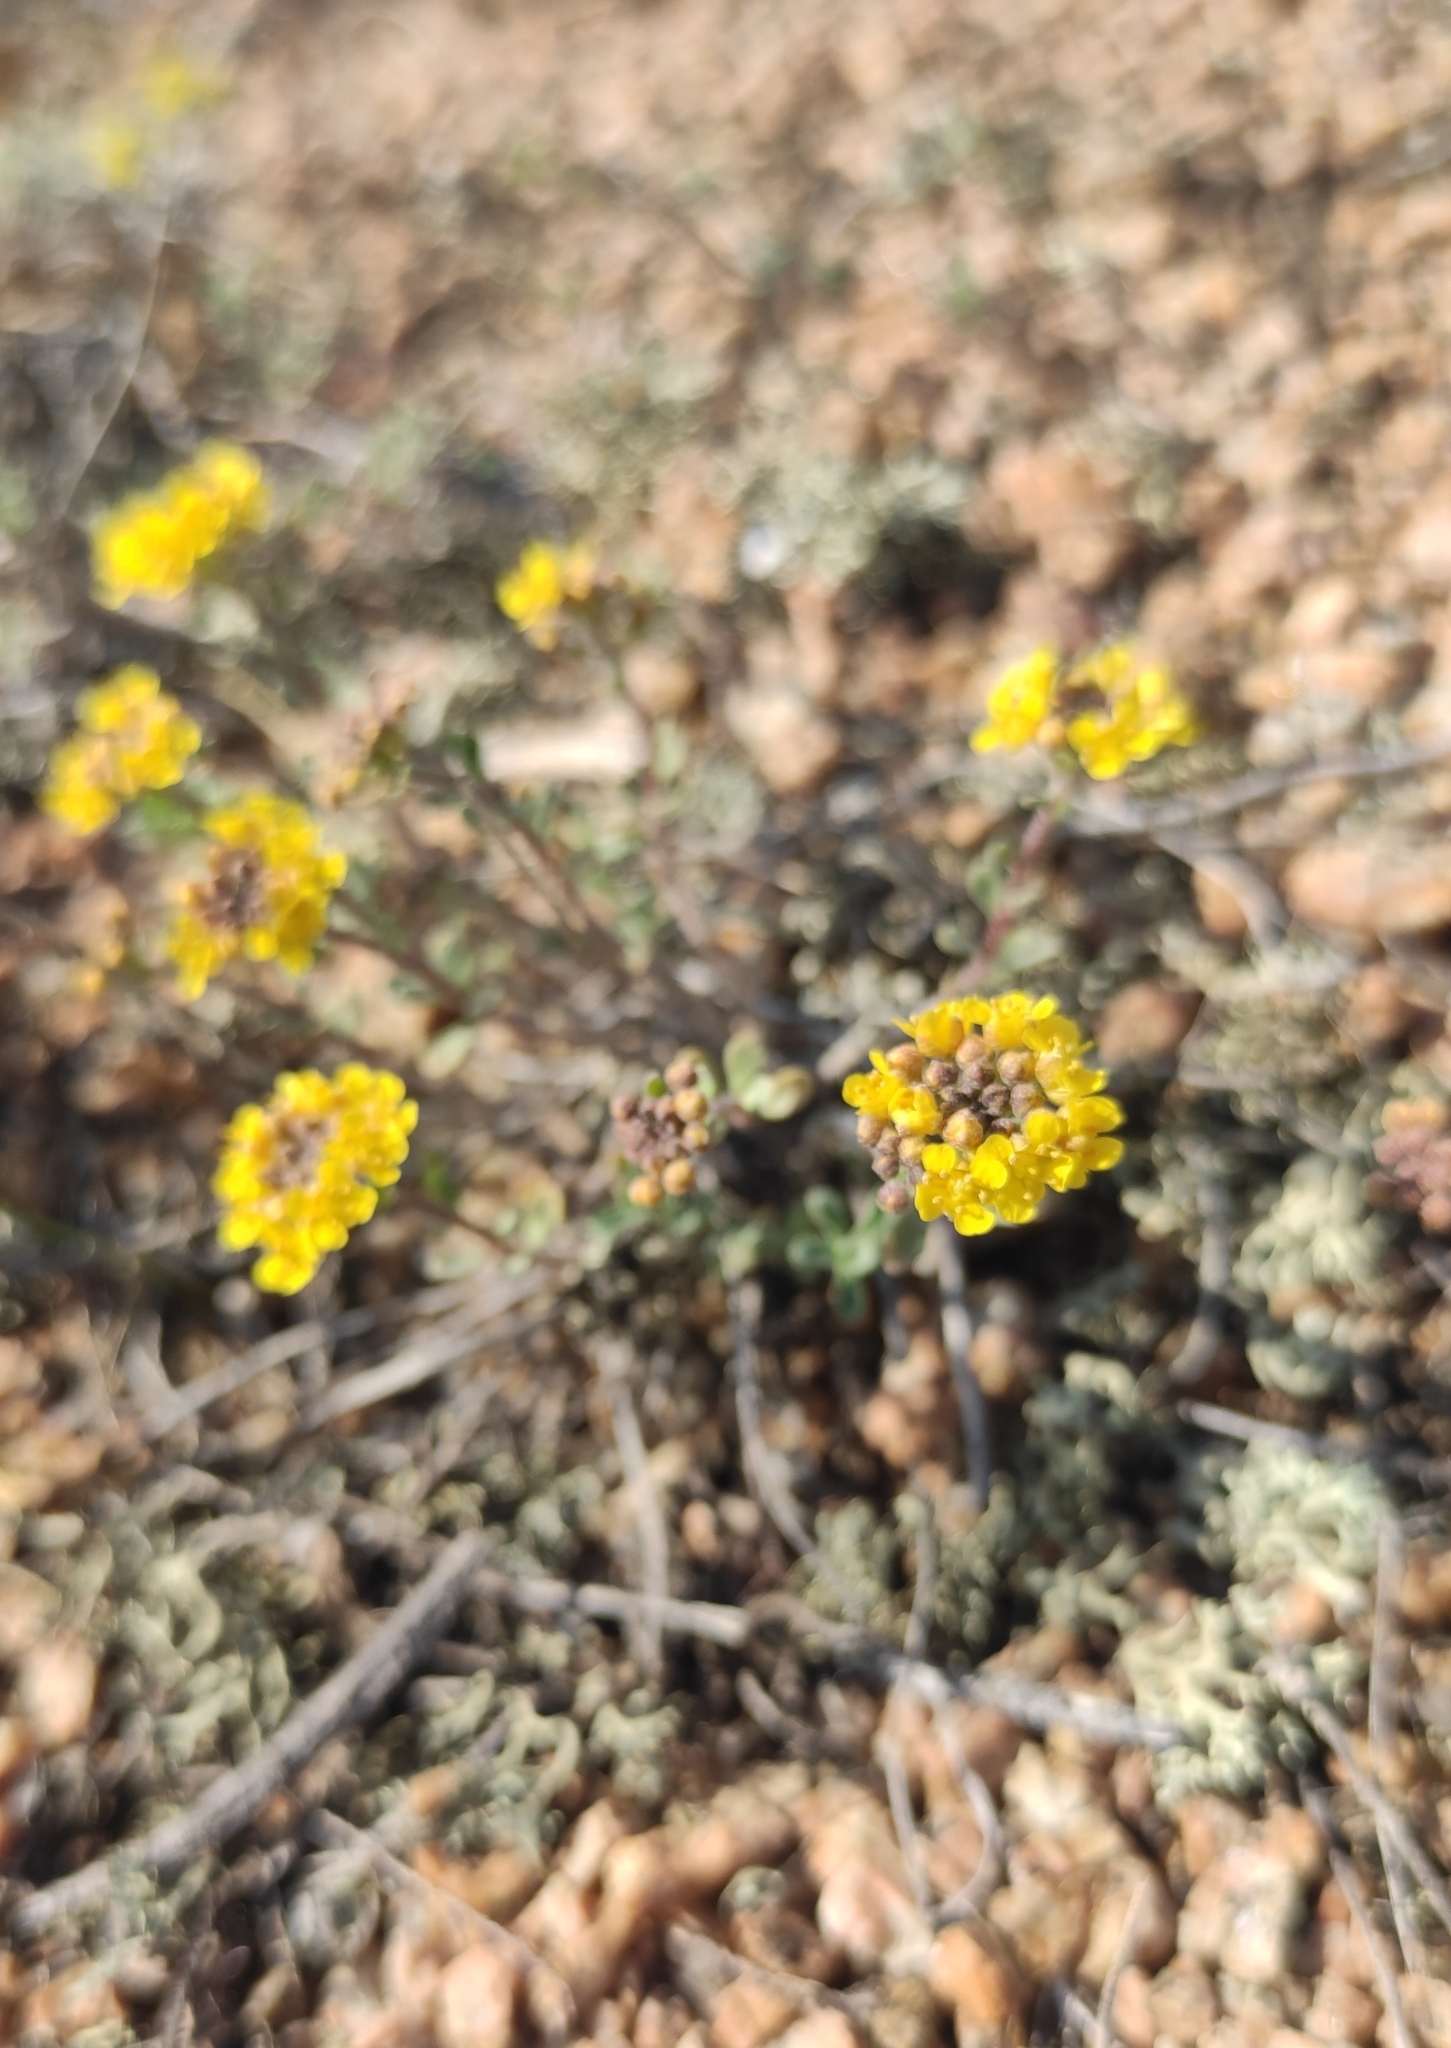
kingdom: Plantae
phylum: Tracheophyta
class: Magnoliopsida
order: Brassicales
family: Brassicaceae
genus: Odontarrhena
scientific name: Odontarrhena obovata
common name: American alyssum
